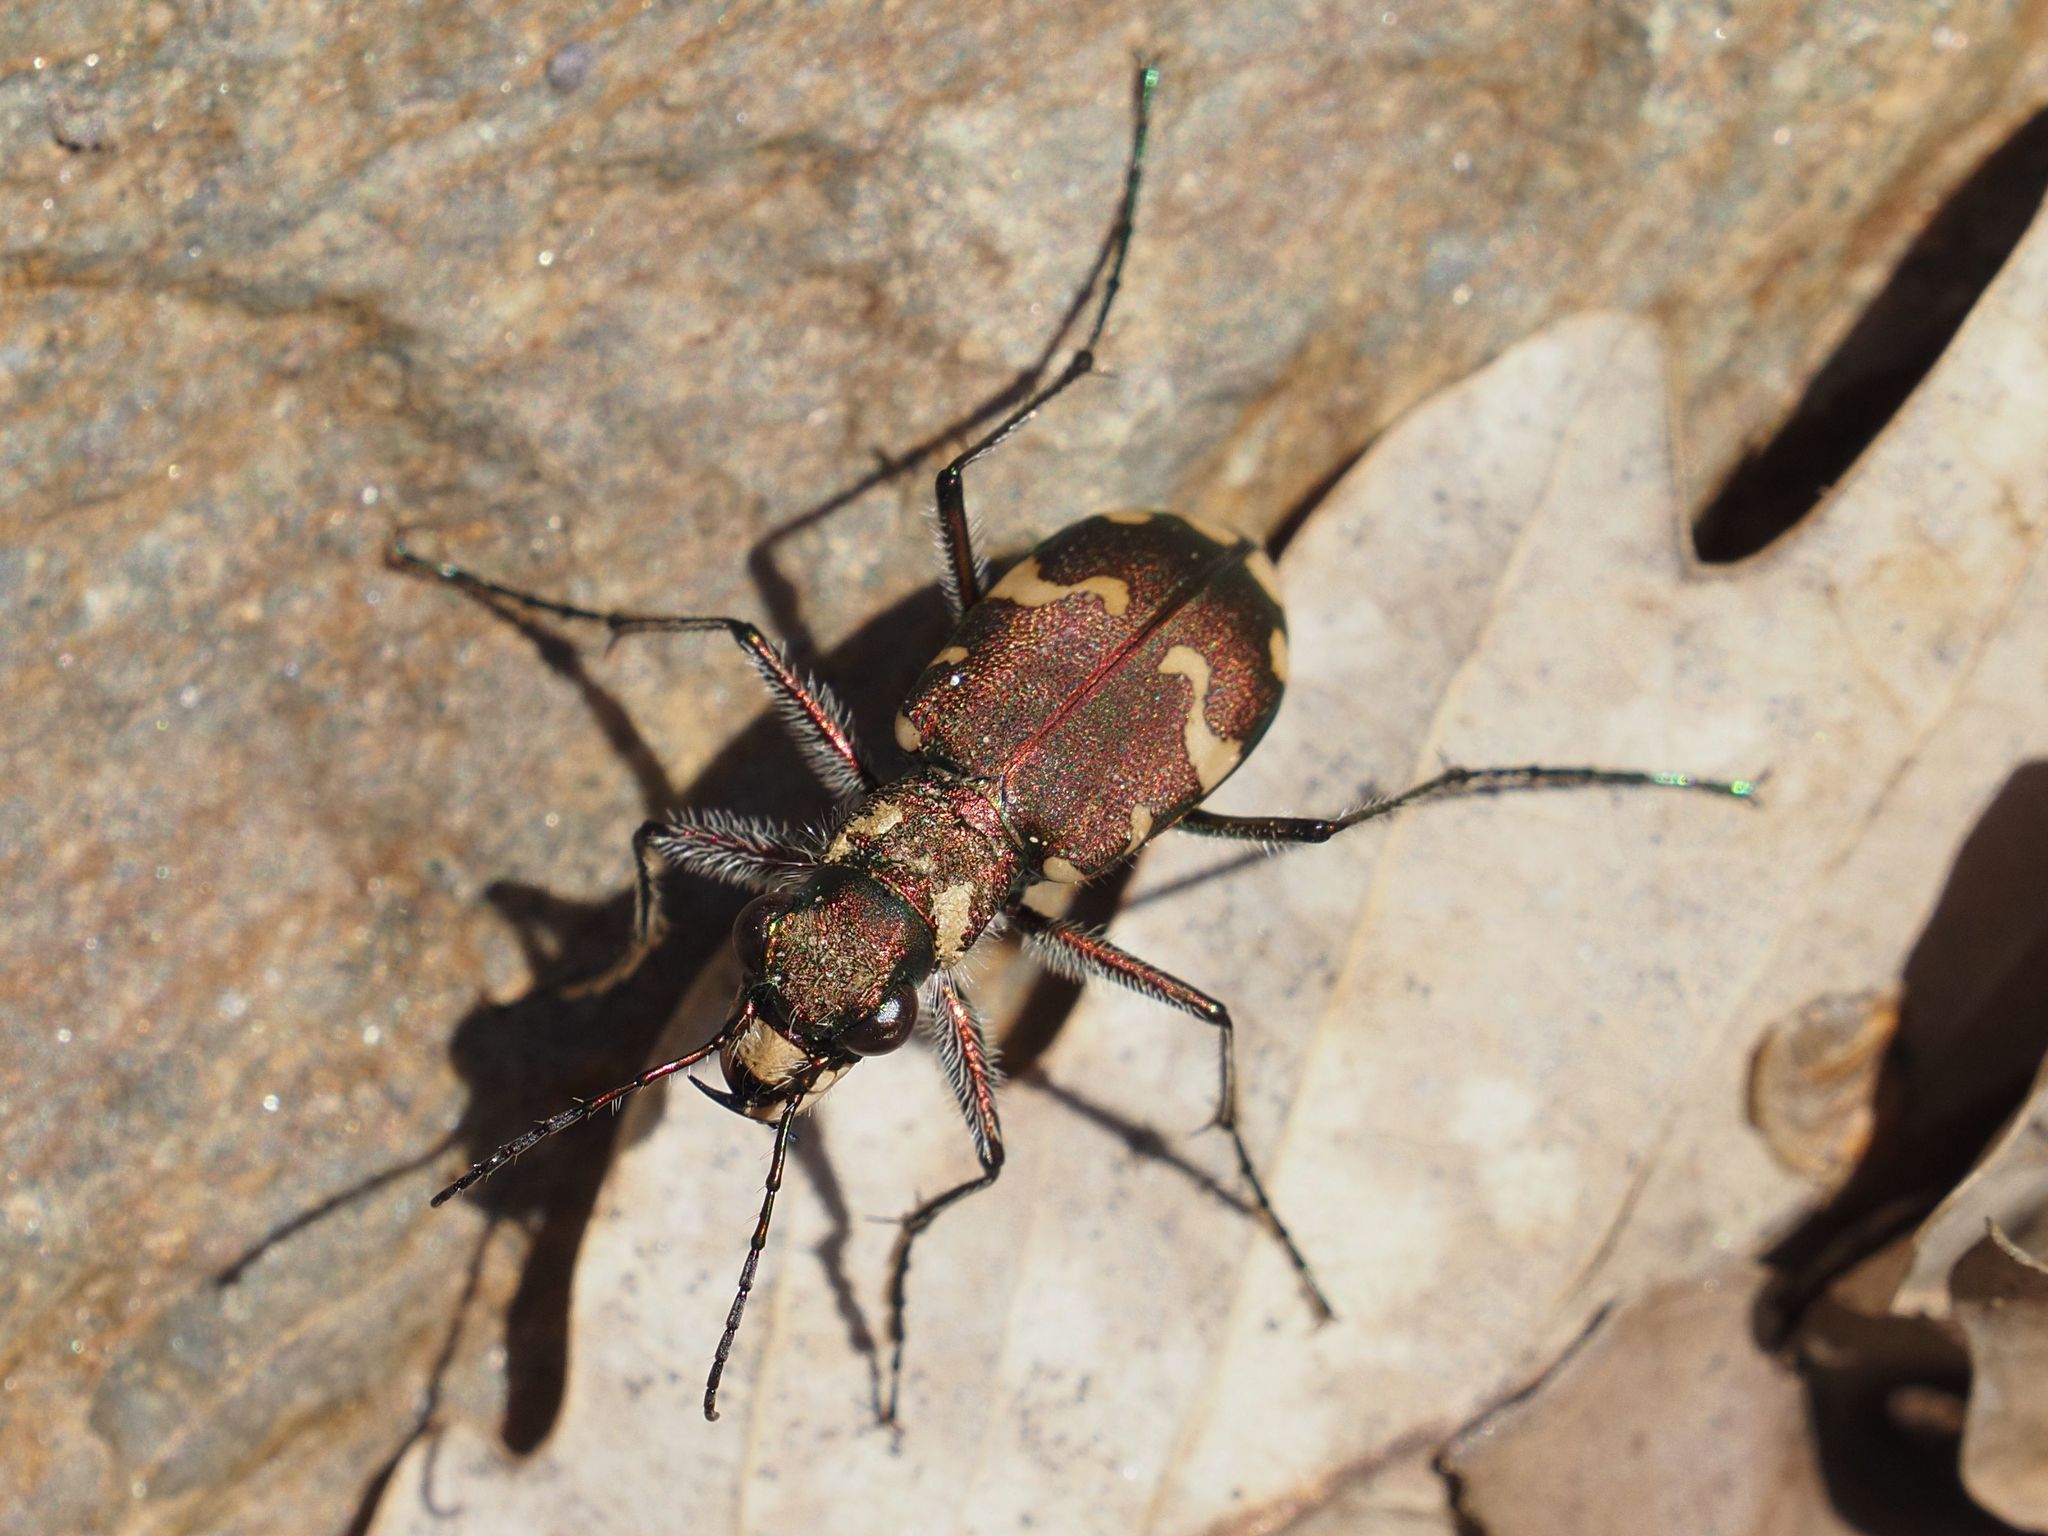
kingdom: Animalia
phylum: Arthropoda
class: Insecta
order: Coleoptera
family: Carabidae
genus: Cicindela
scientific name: Cicindela sylvicola
